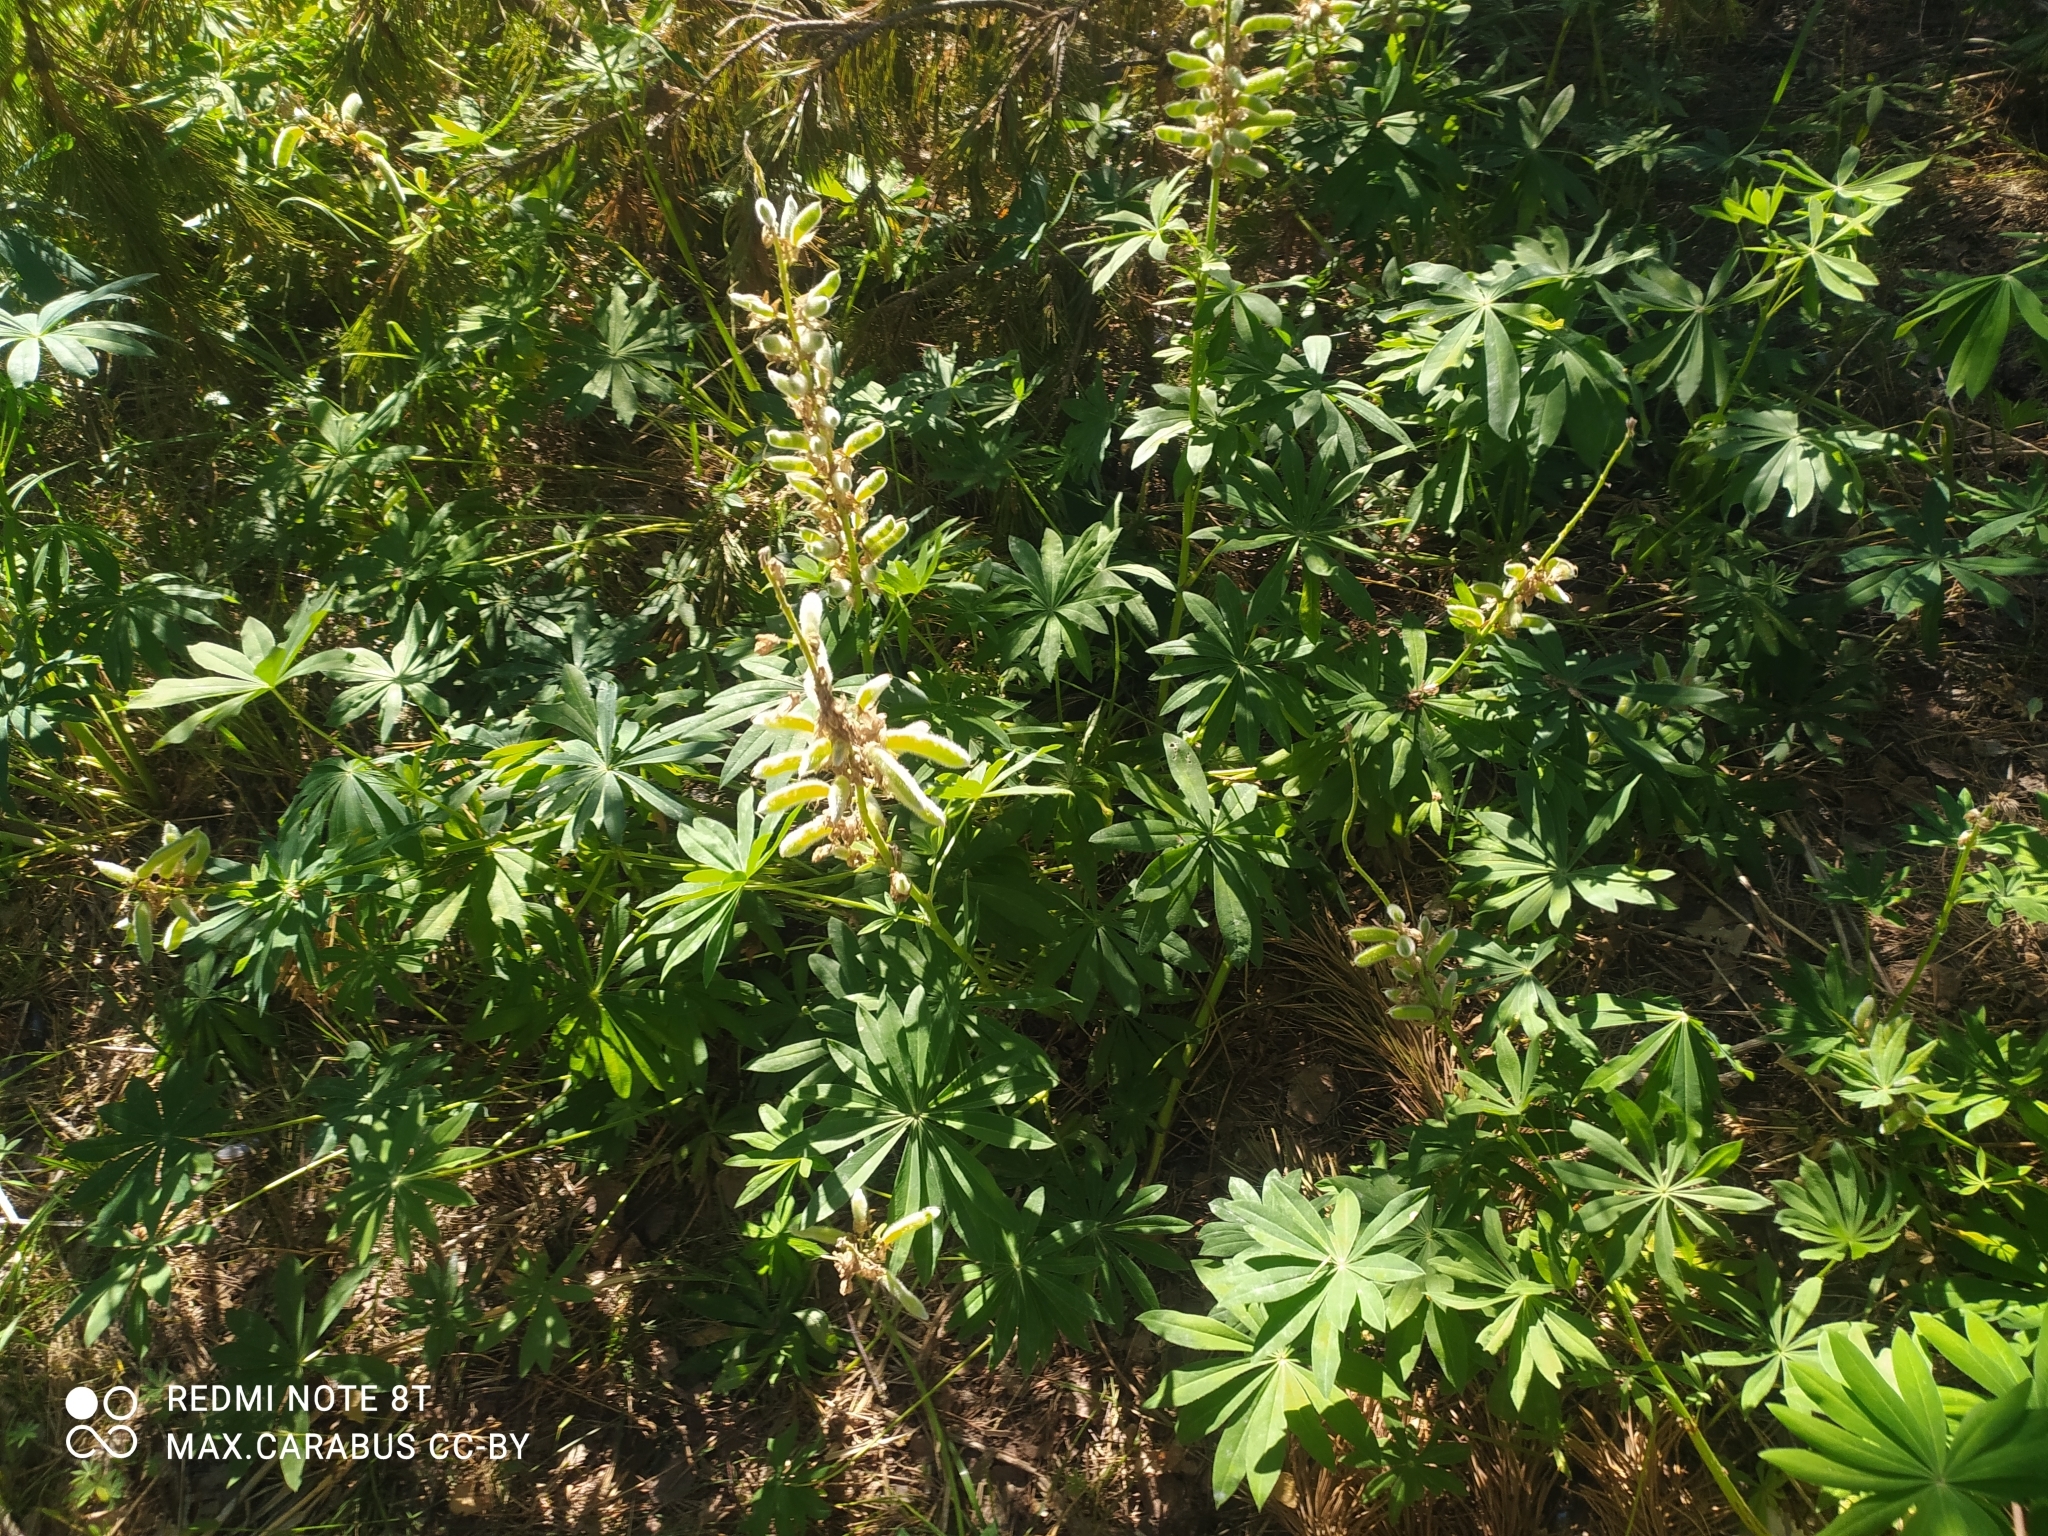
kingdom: Plantae
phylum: Tracheophyta
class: Magnoliopsida
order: Fabales
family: Fabaceae
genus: Lupinus
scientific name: Lupinus polyphyllus
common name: Garden lupin
